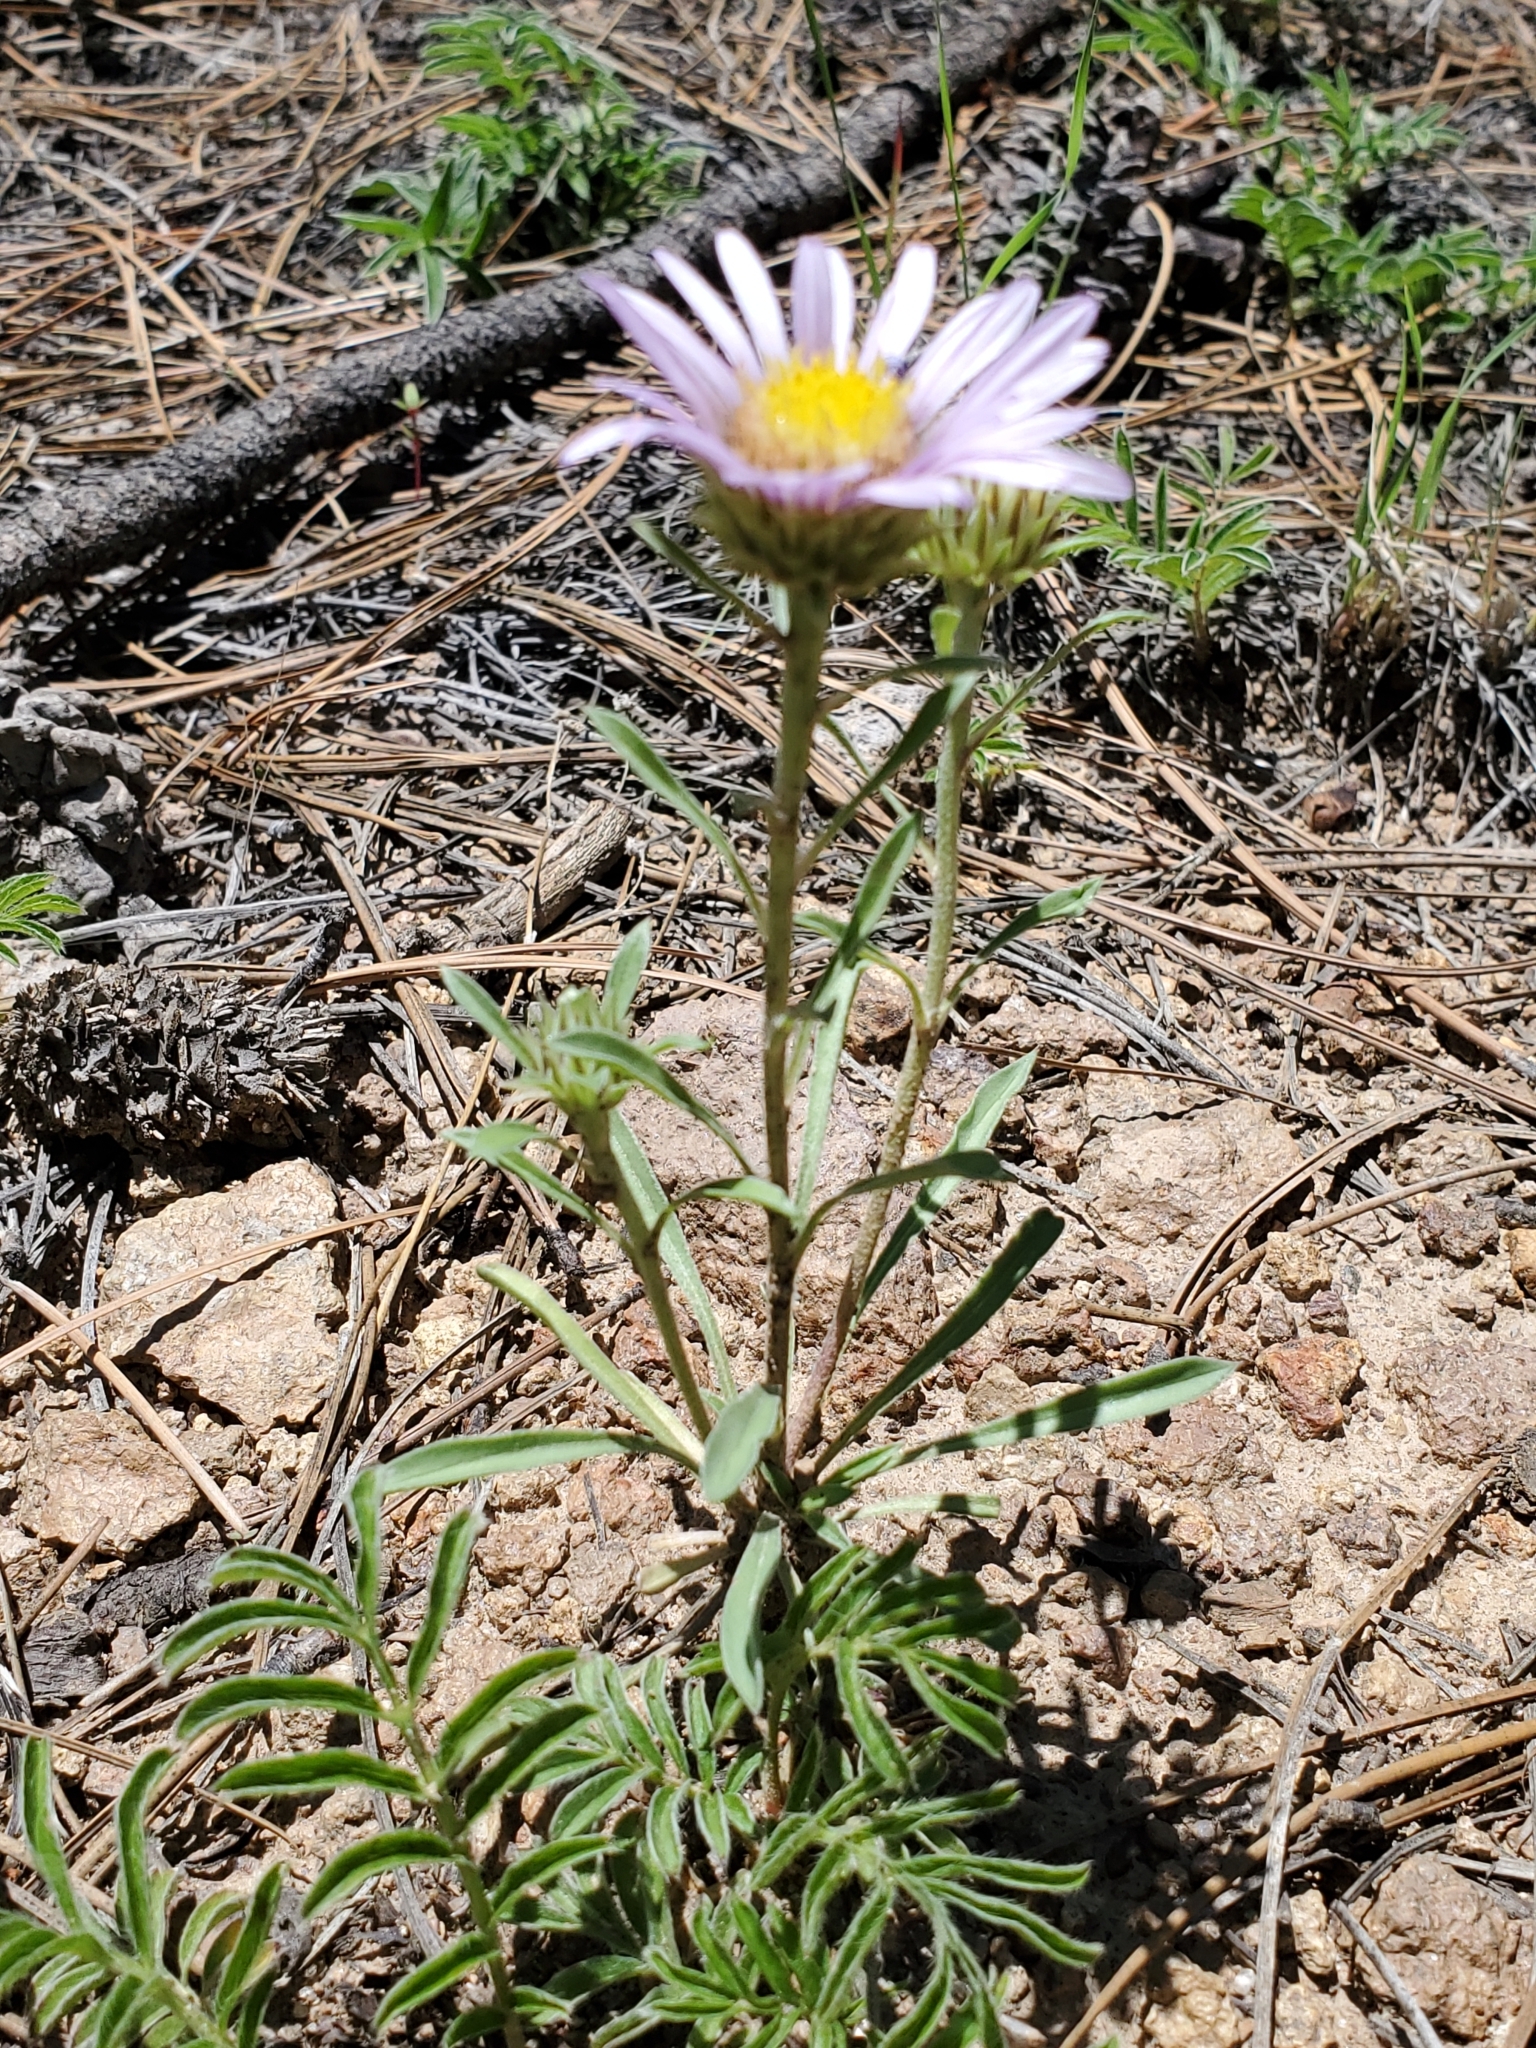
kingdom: Plantae
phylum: Tracheophyta
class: Magnoliopsida
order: Asterales
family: Asteraceae
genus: Townsendia
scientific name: Townsendia eximia
